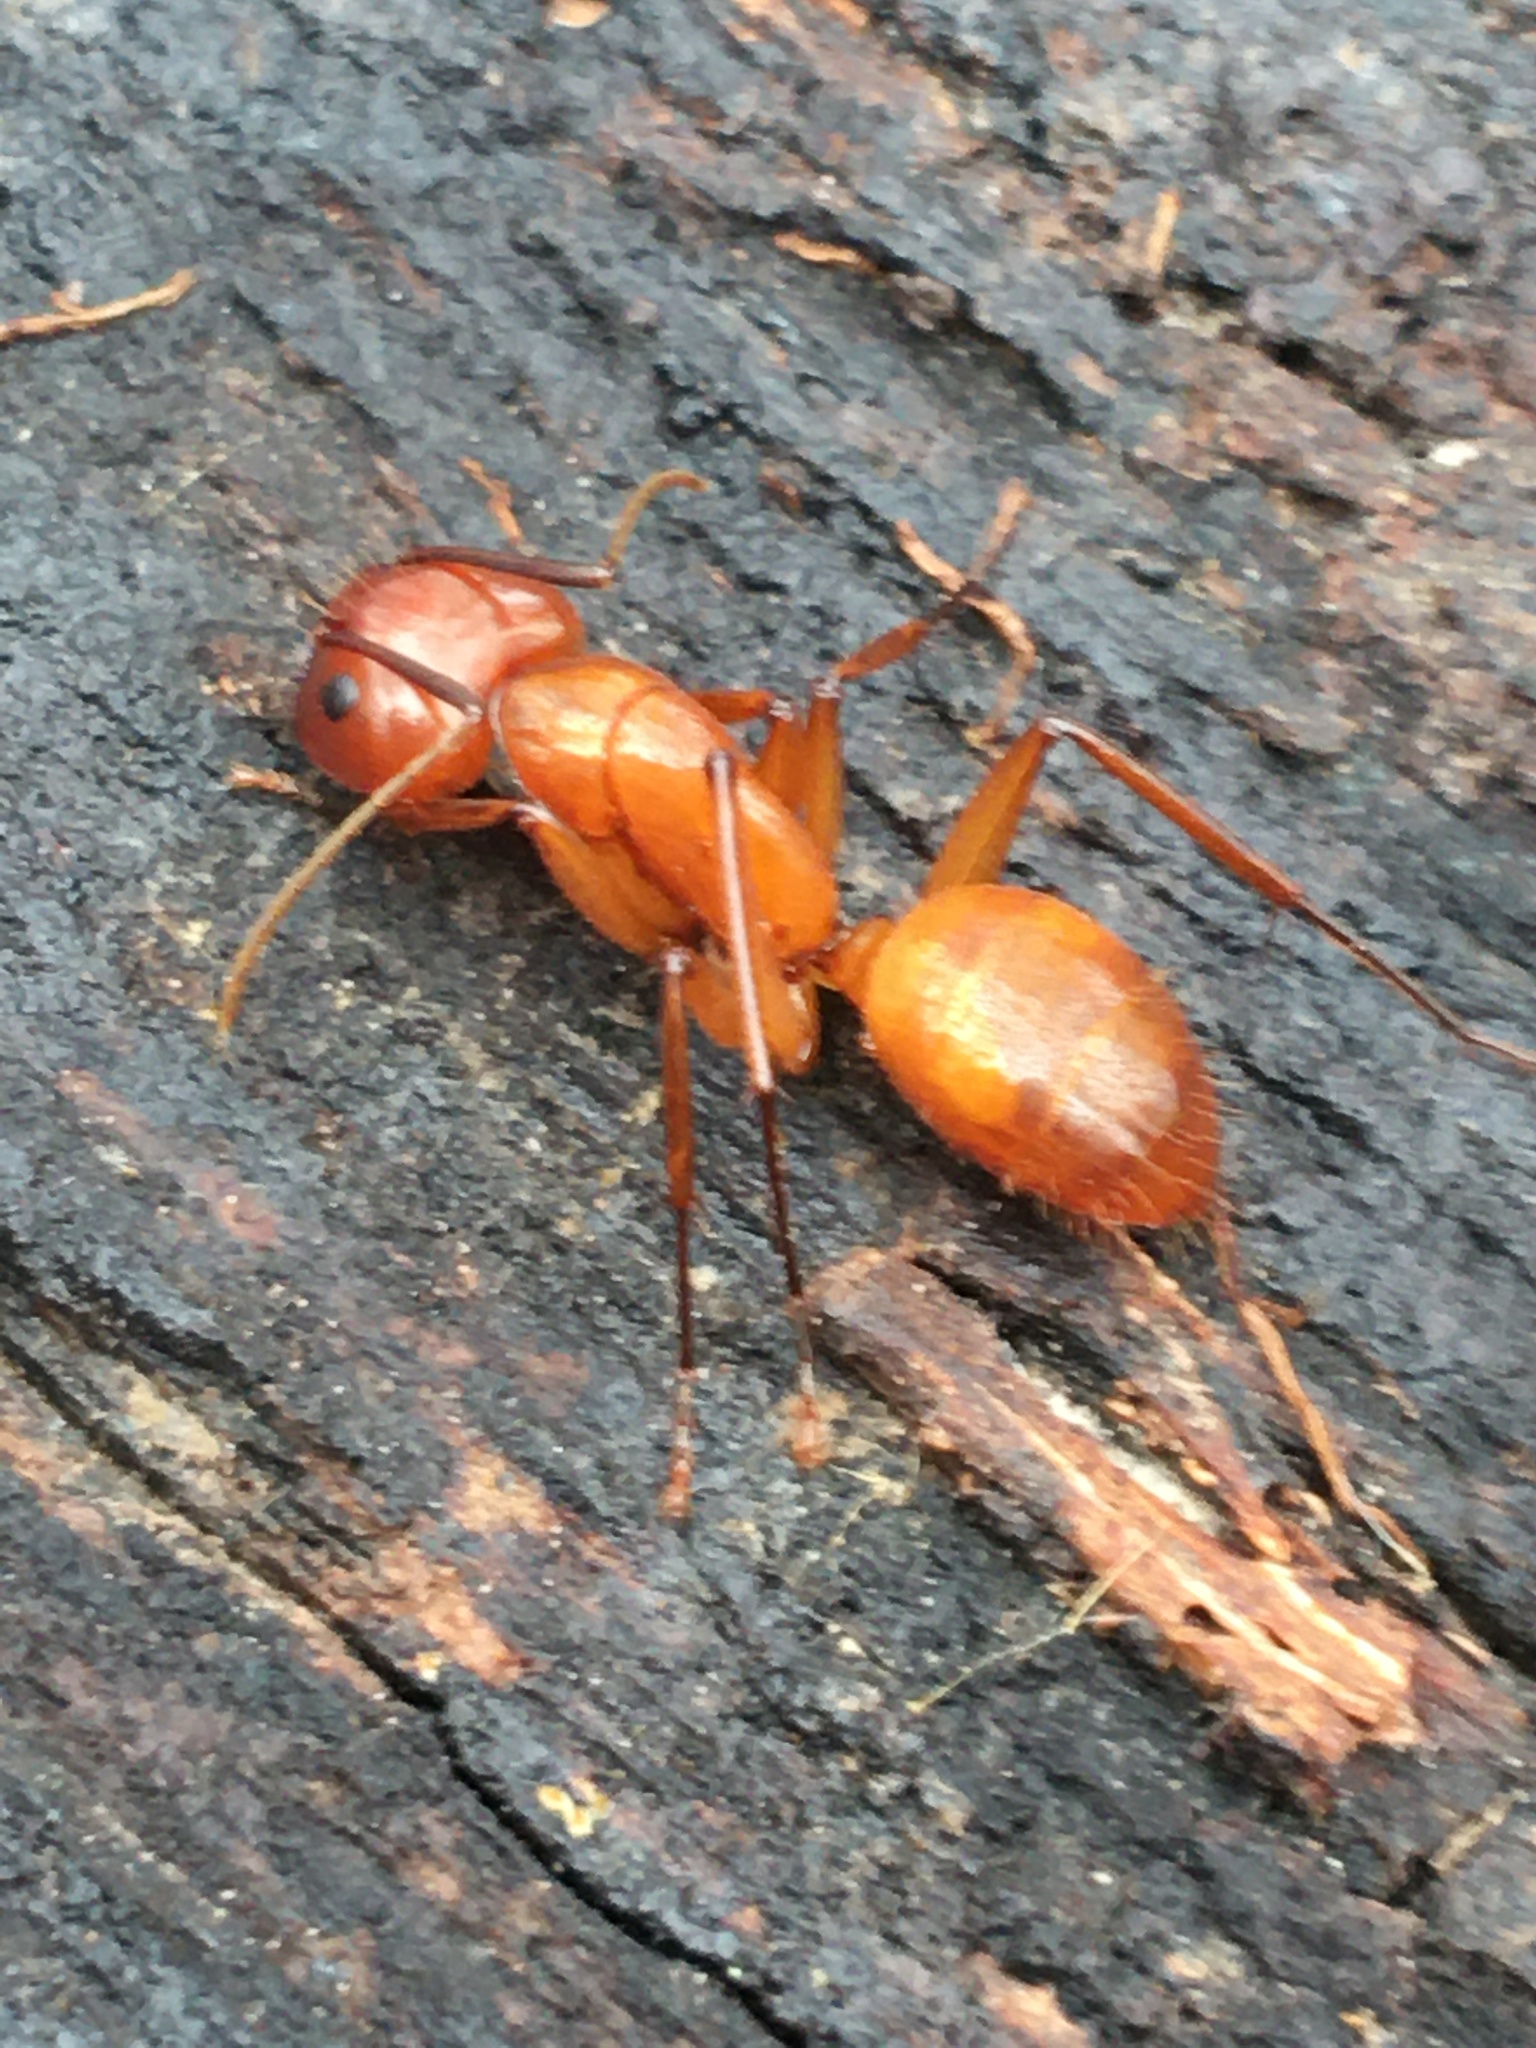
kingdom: Animalia
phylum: Arthropoda
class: Insecta
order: Hymenoptera
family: Formicidae
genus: Camponotus
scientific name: Camponotus castaneus
